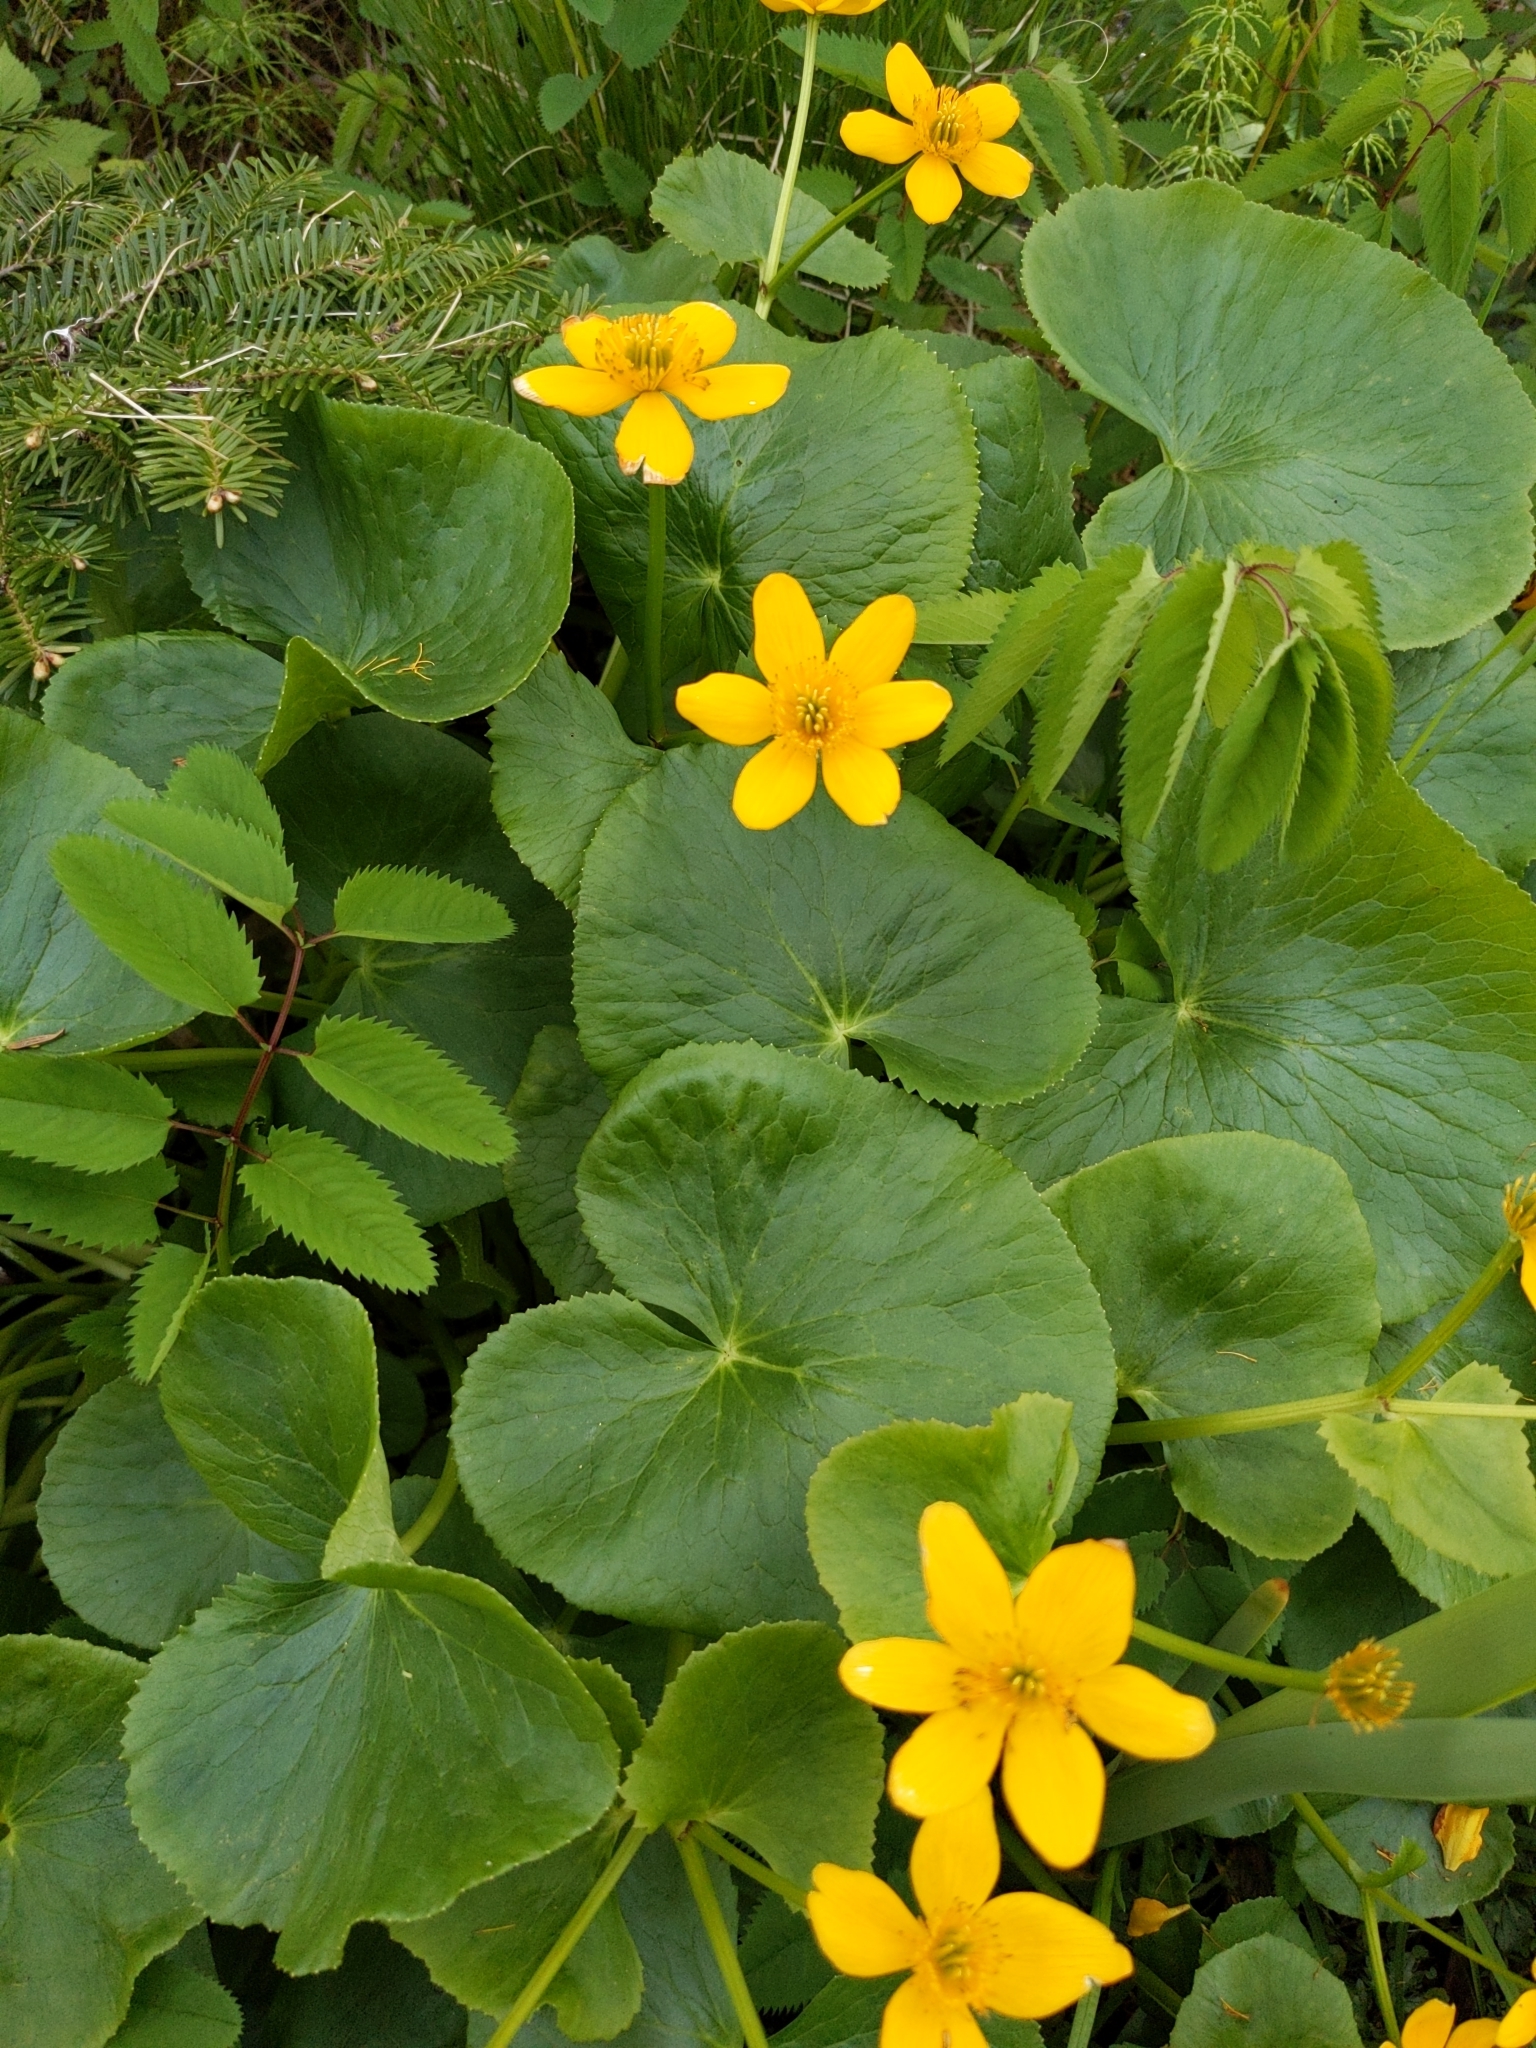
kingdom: Plantae
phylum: Tracheophyta
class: Magnoliopsida
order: Ranunculales
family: Ranunculaceae
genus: Caltha
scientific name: Caltha palustris
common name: Marsh marigold
